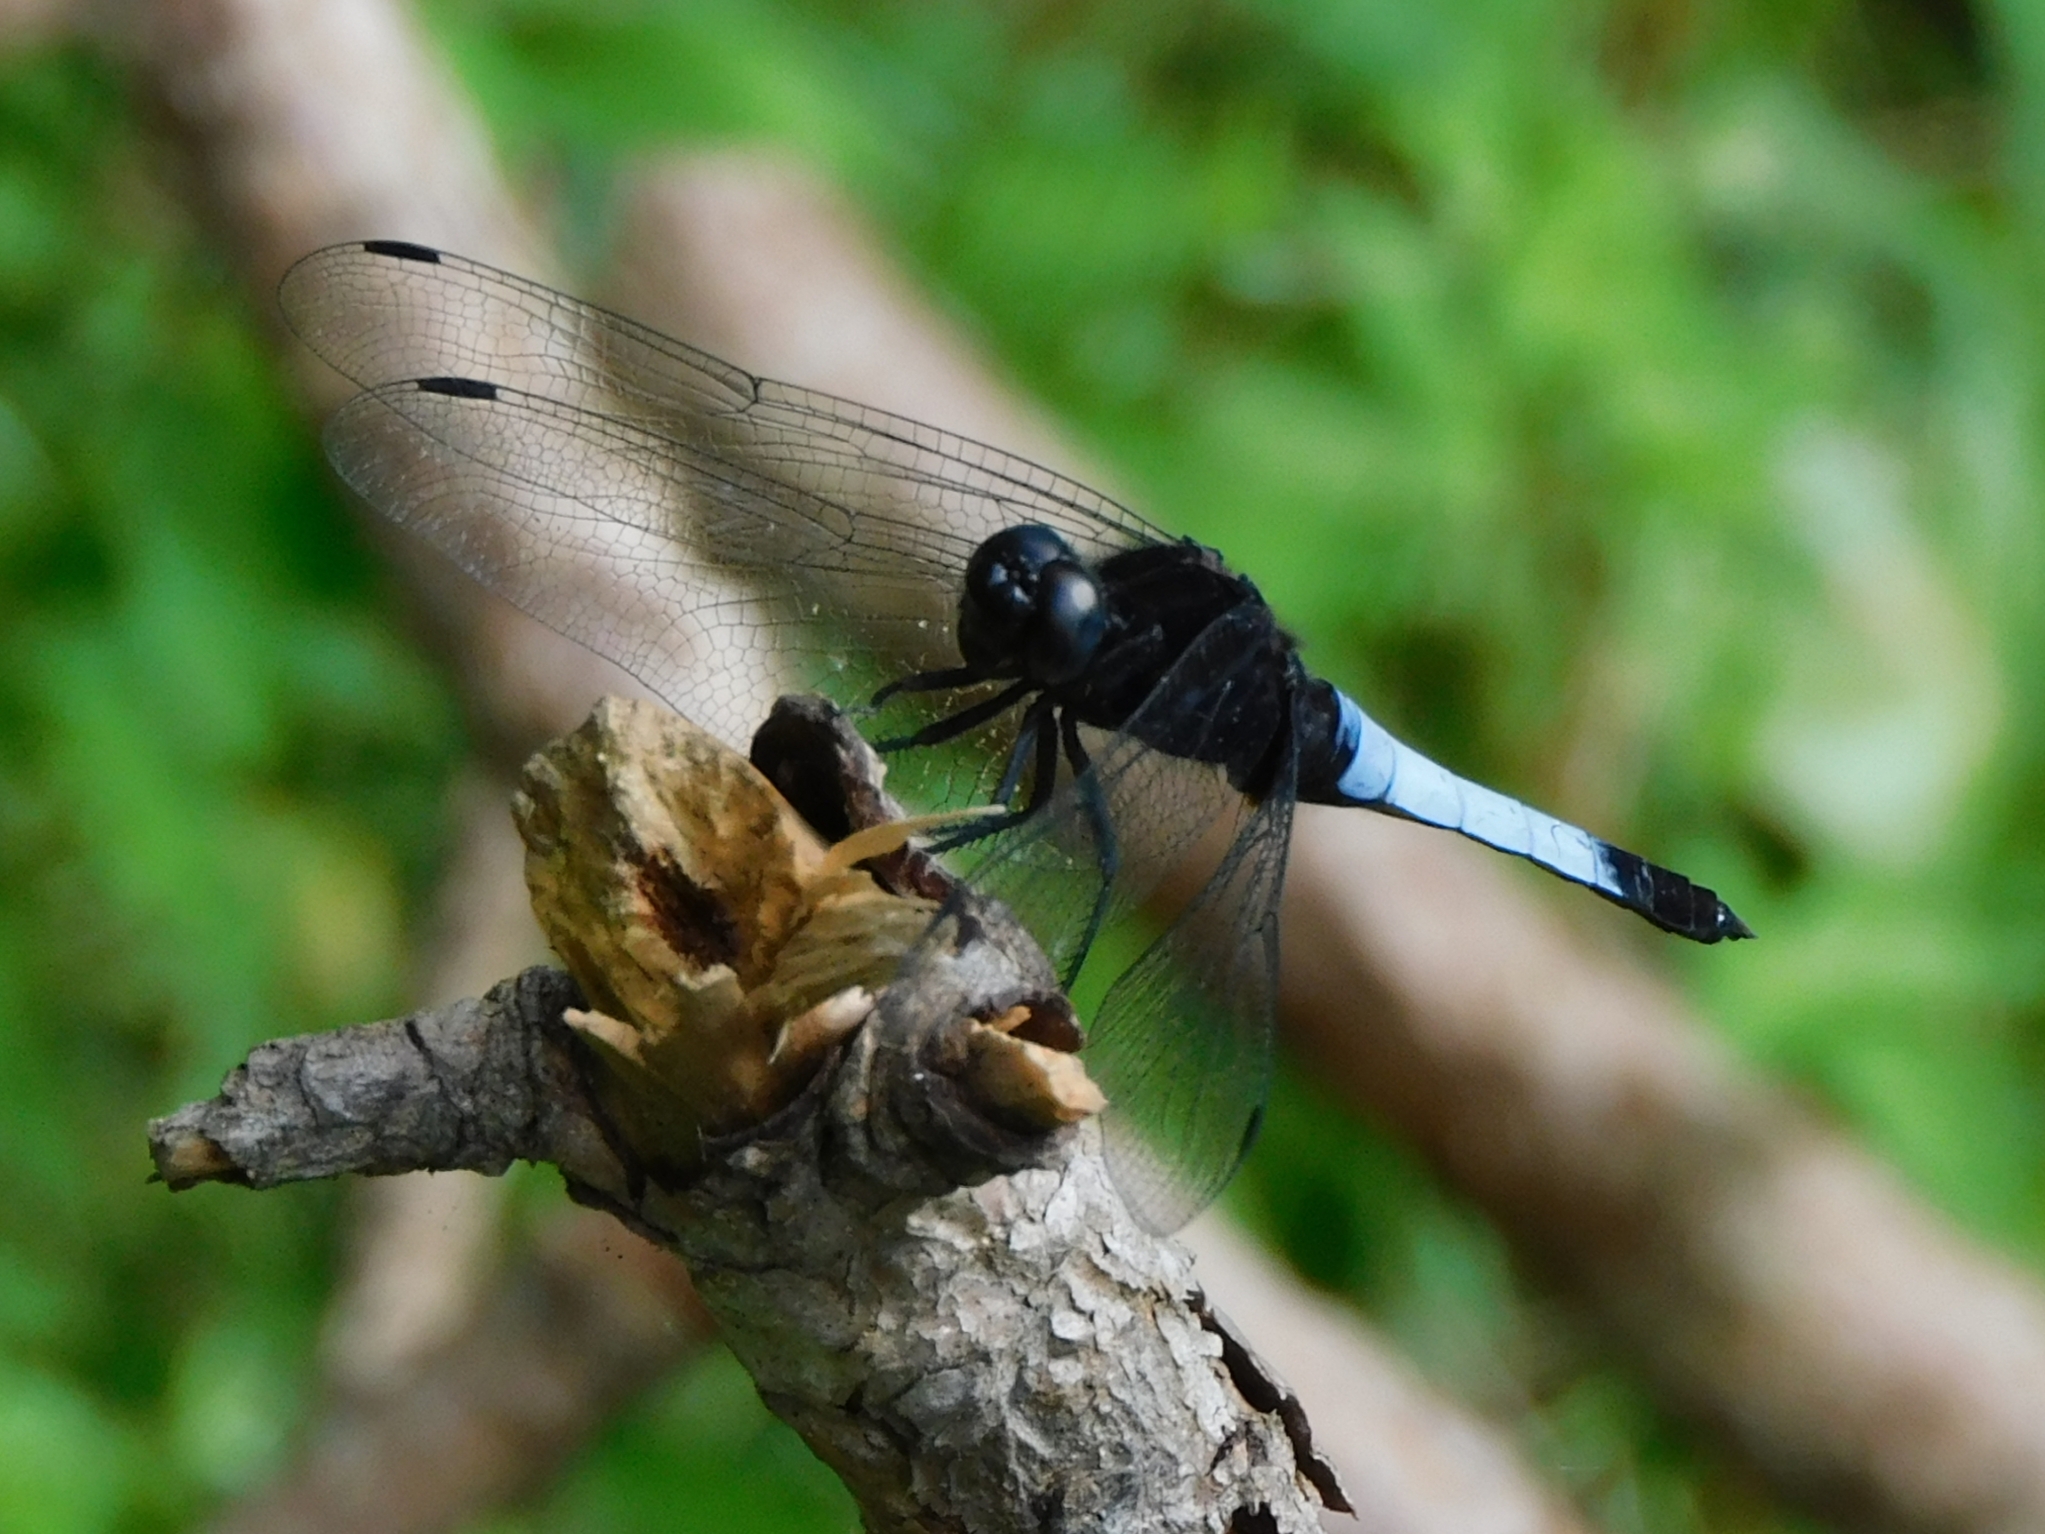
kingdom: Animalia
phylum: Arthropoda
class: Insecta
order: Odonata
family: Libellulidae
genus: Orthetrum
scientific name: Orthetrum triangulare
